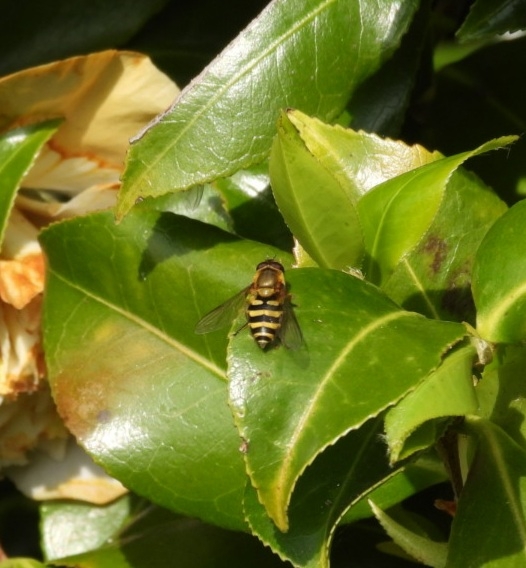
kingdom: Animalia
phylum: Arthropoda
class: Insecta
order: Diptera
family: Syrphidae
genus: Syrphus
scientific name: Syrphus
